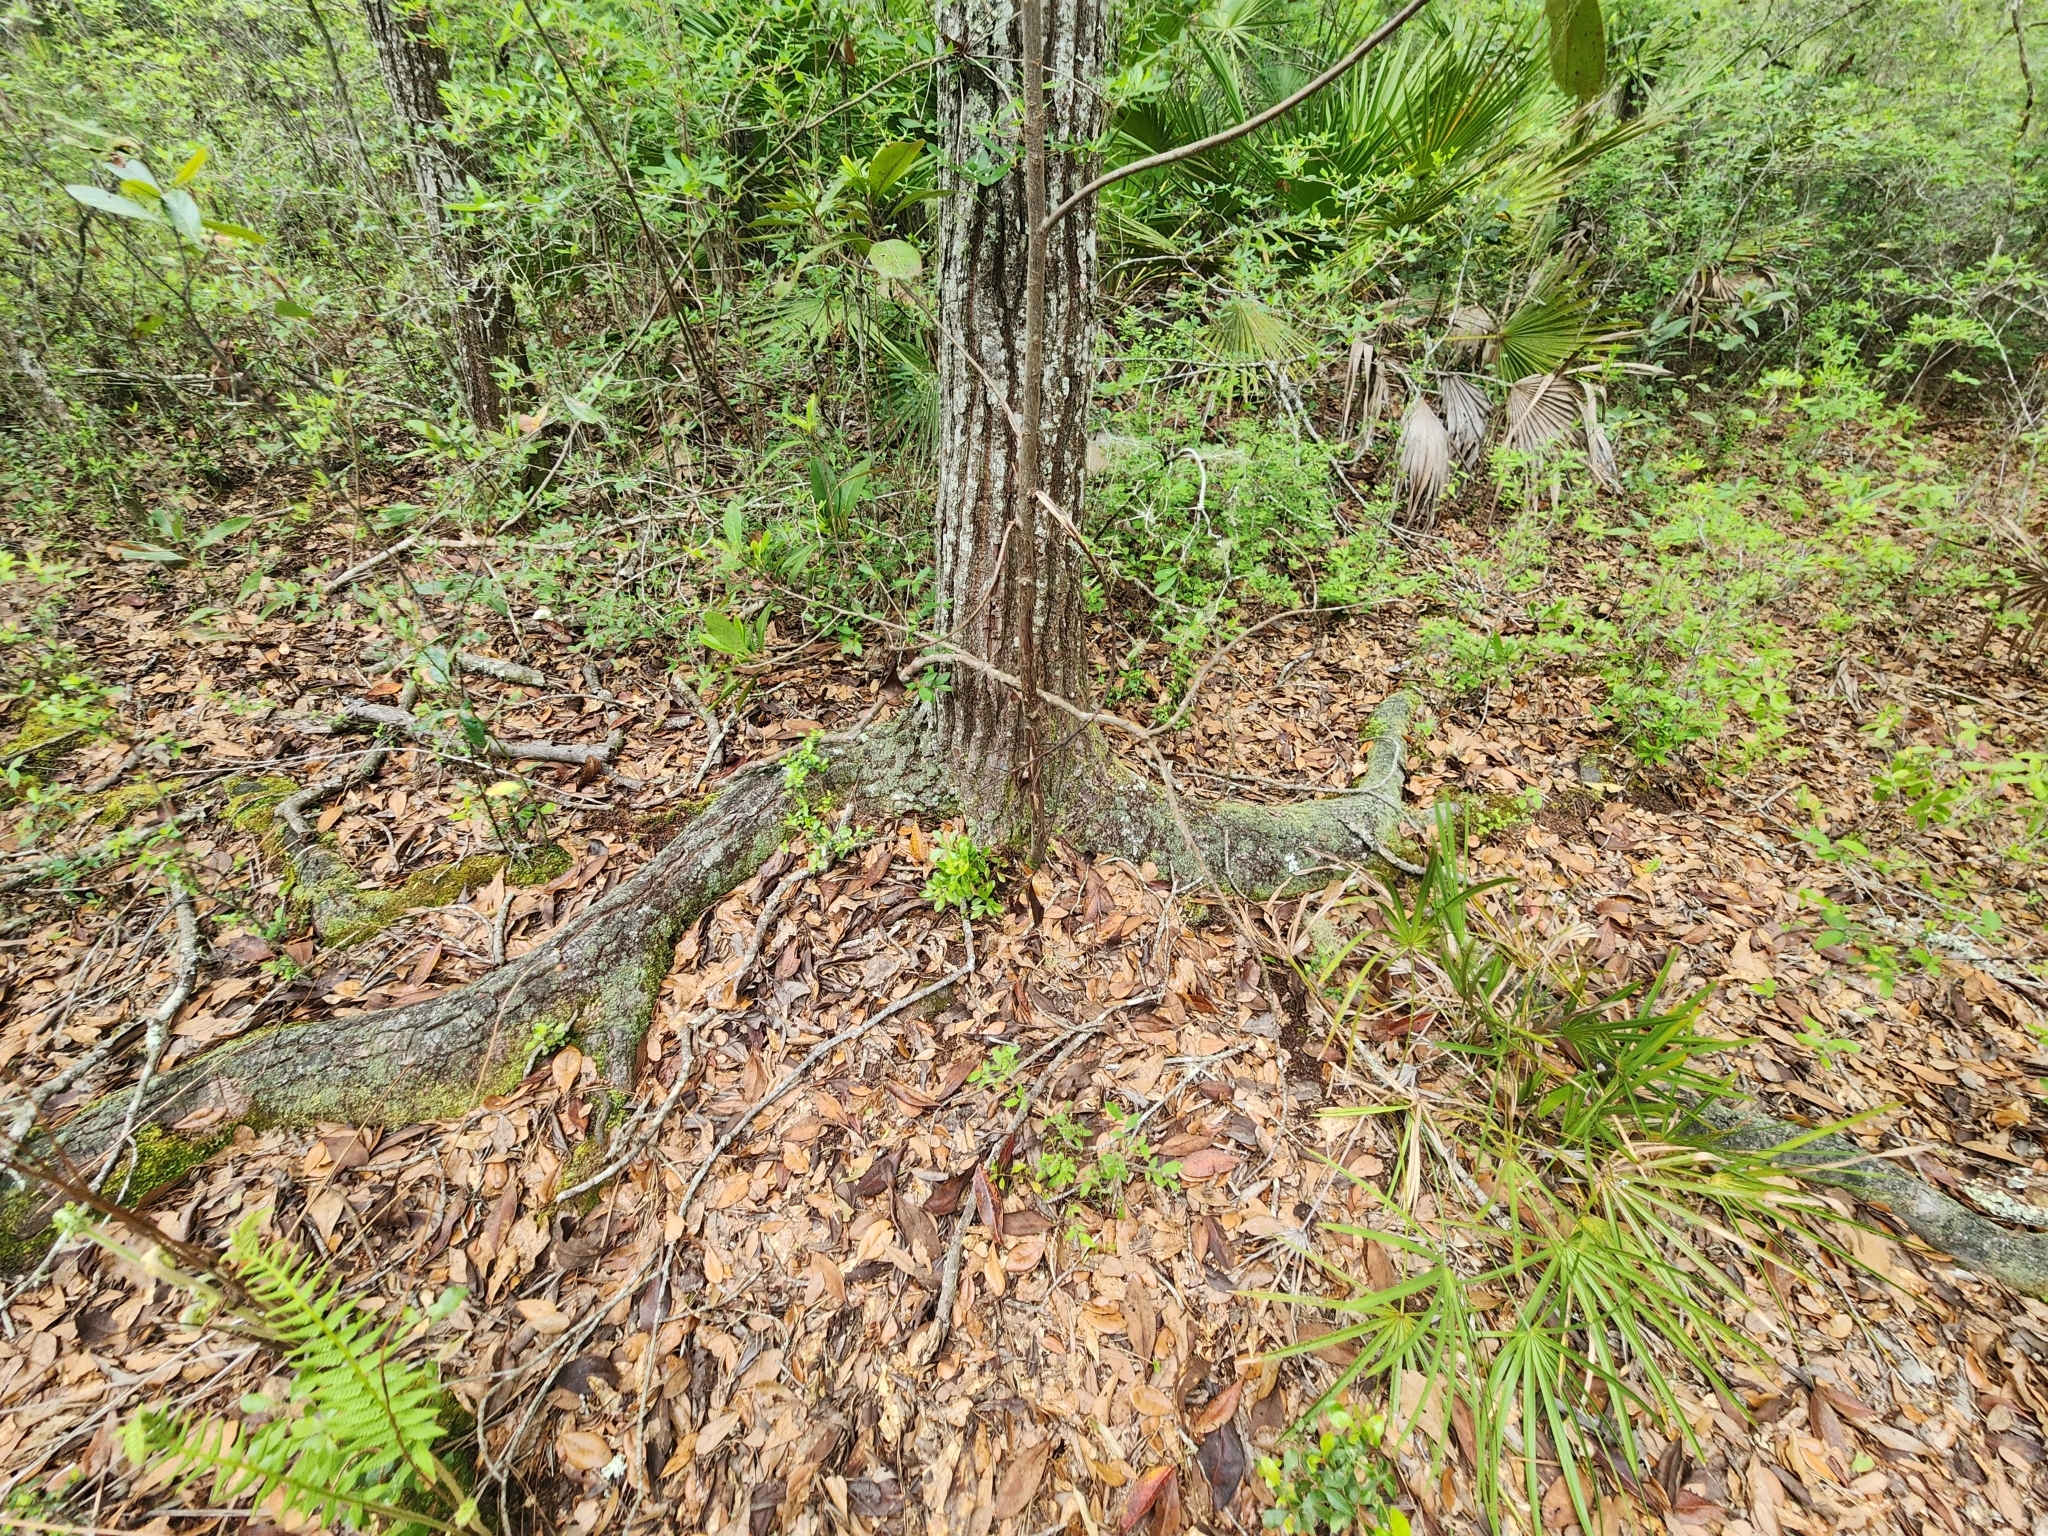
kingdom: Plantae
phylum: Tracheophyta
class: Magnoliopsida
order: Ericales
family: Theaceae
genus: Gordonia
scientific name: Gordonia lasianthus
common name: Loblolly bay
